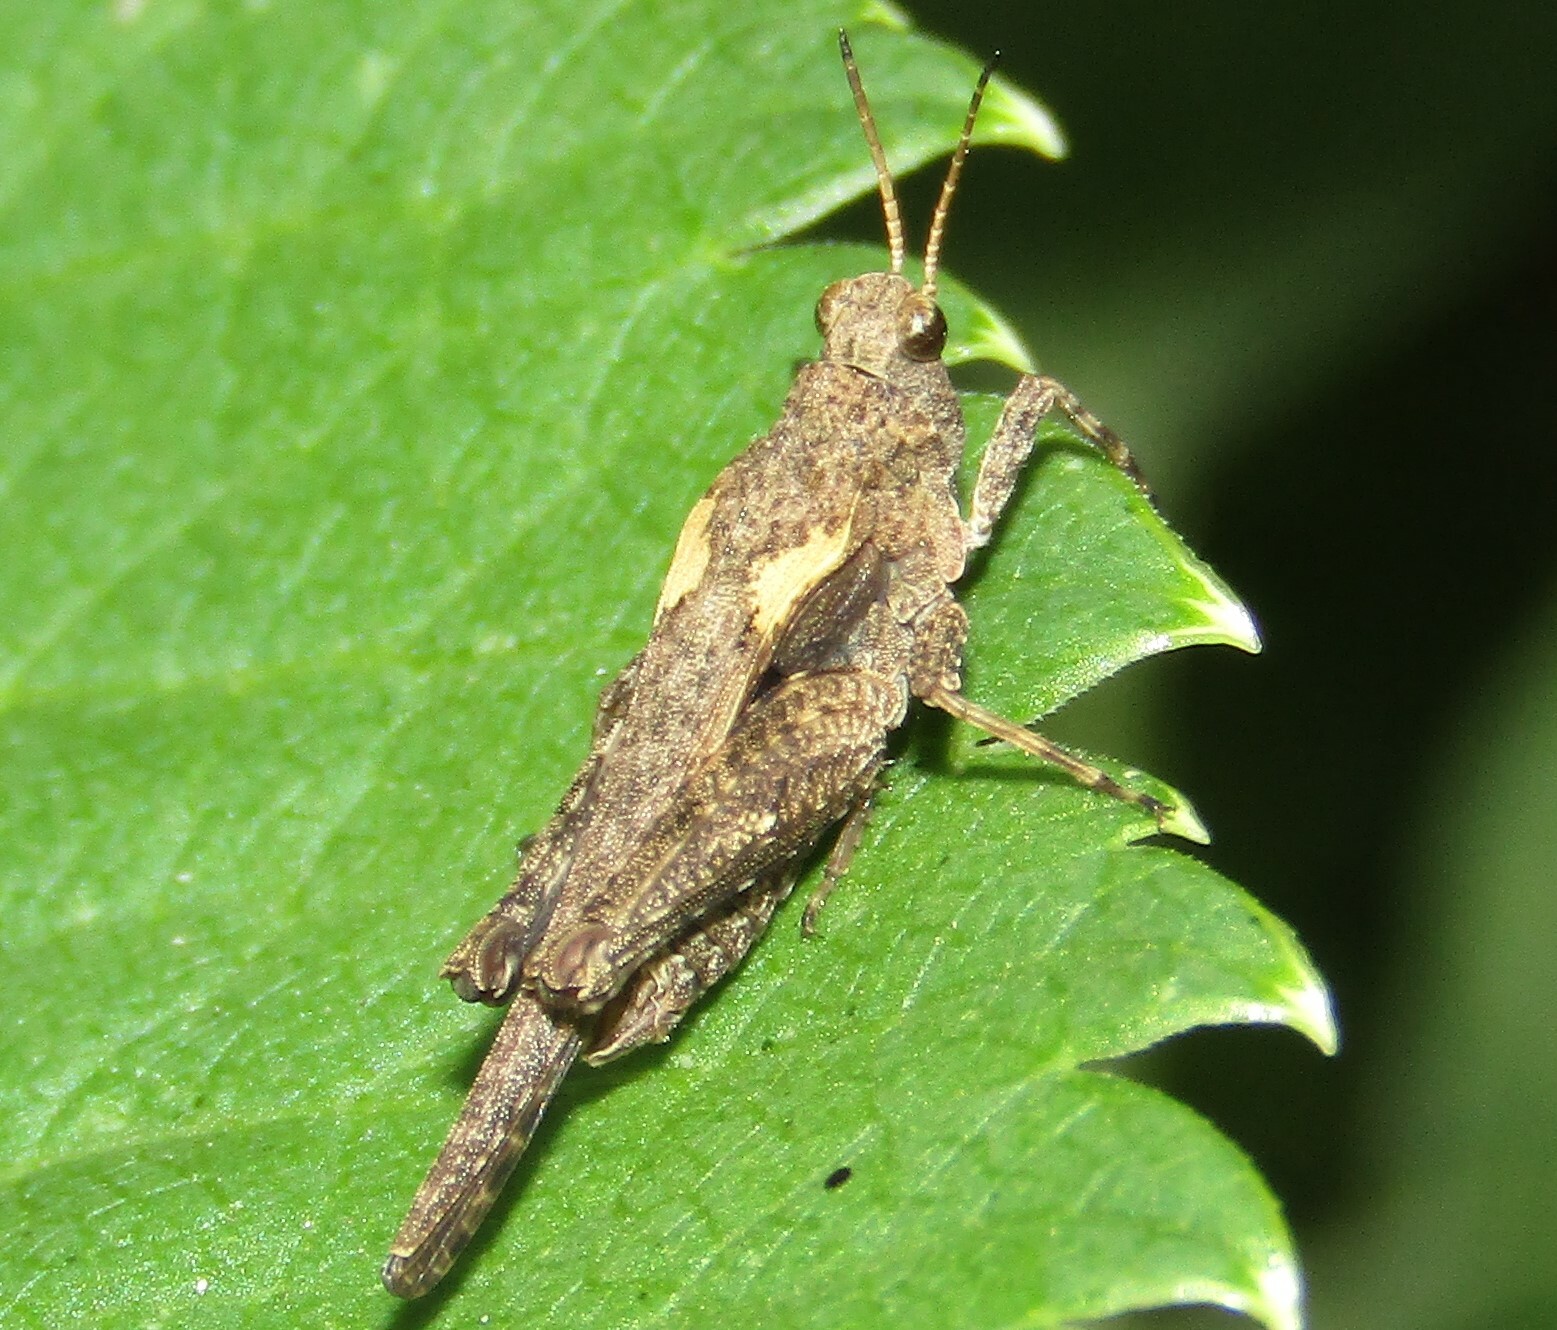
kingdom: Animalia
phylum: Arthropoda
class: Insecta
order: Orthoptera
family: Tetrigidae
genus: Tetrix
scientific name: Tetrix subulata
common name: Slender ground-hopper
